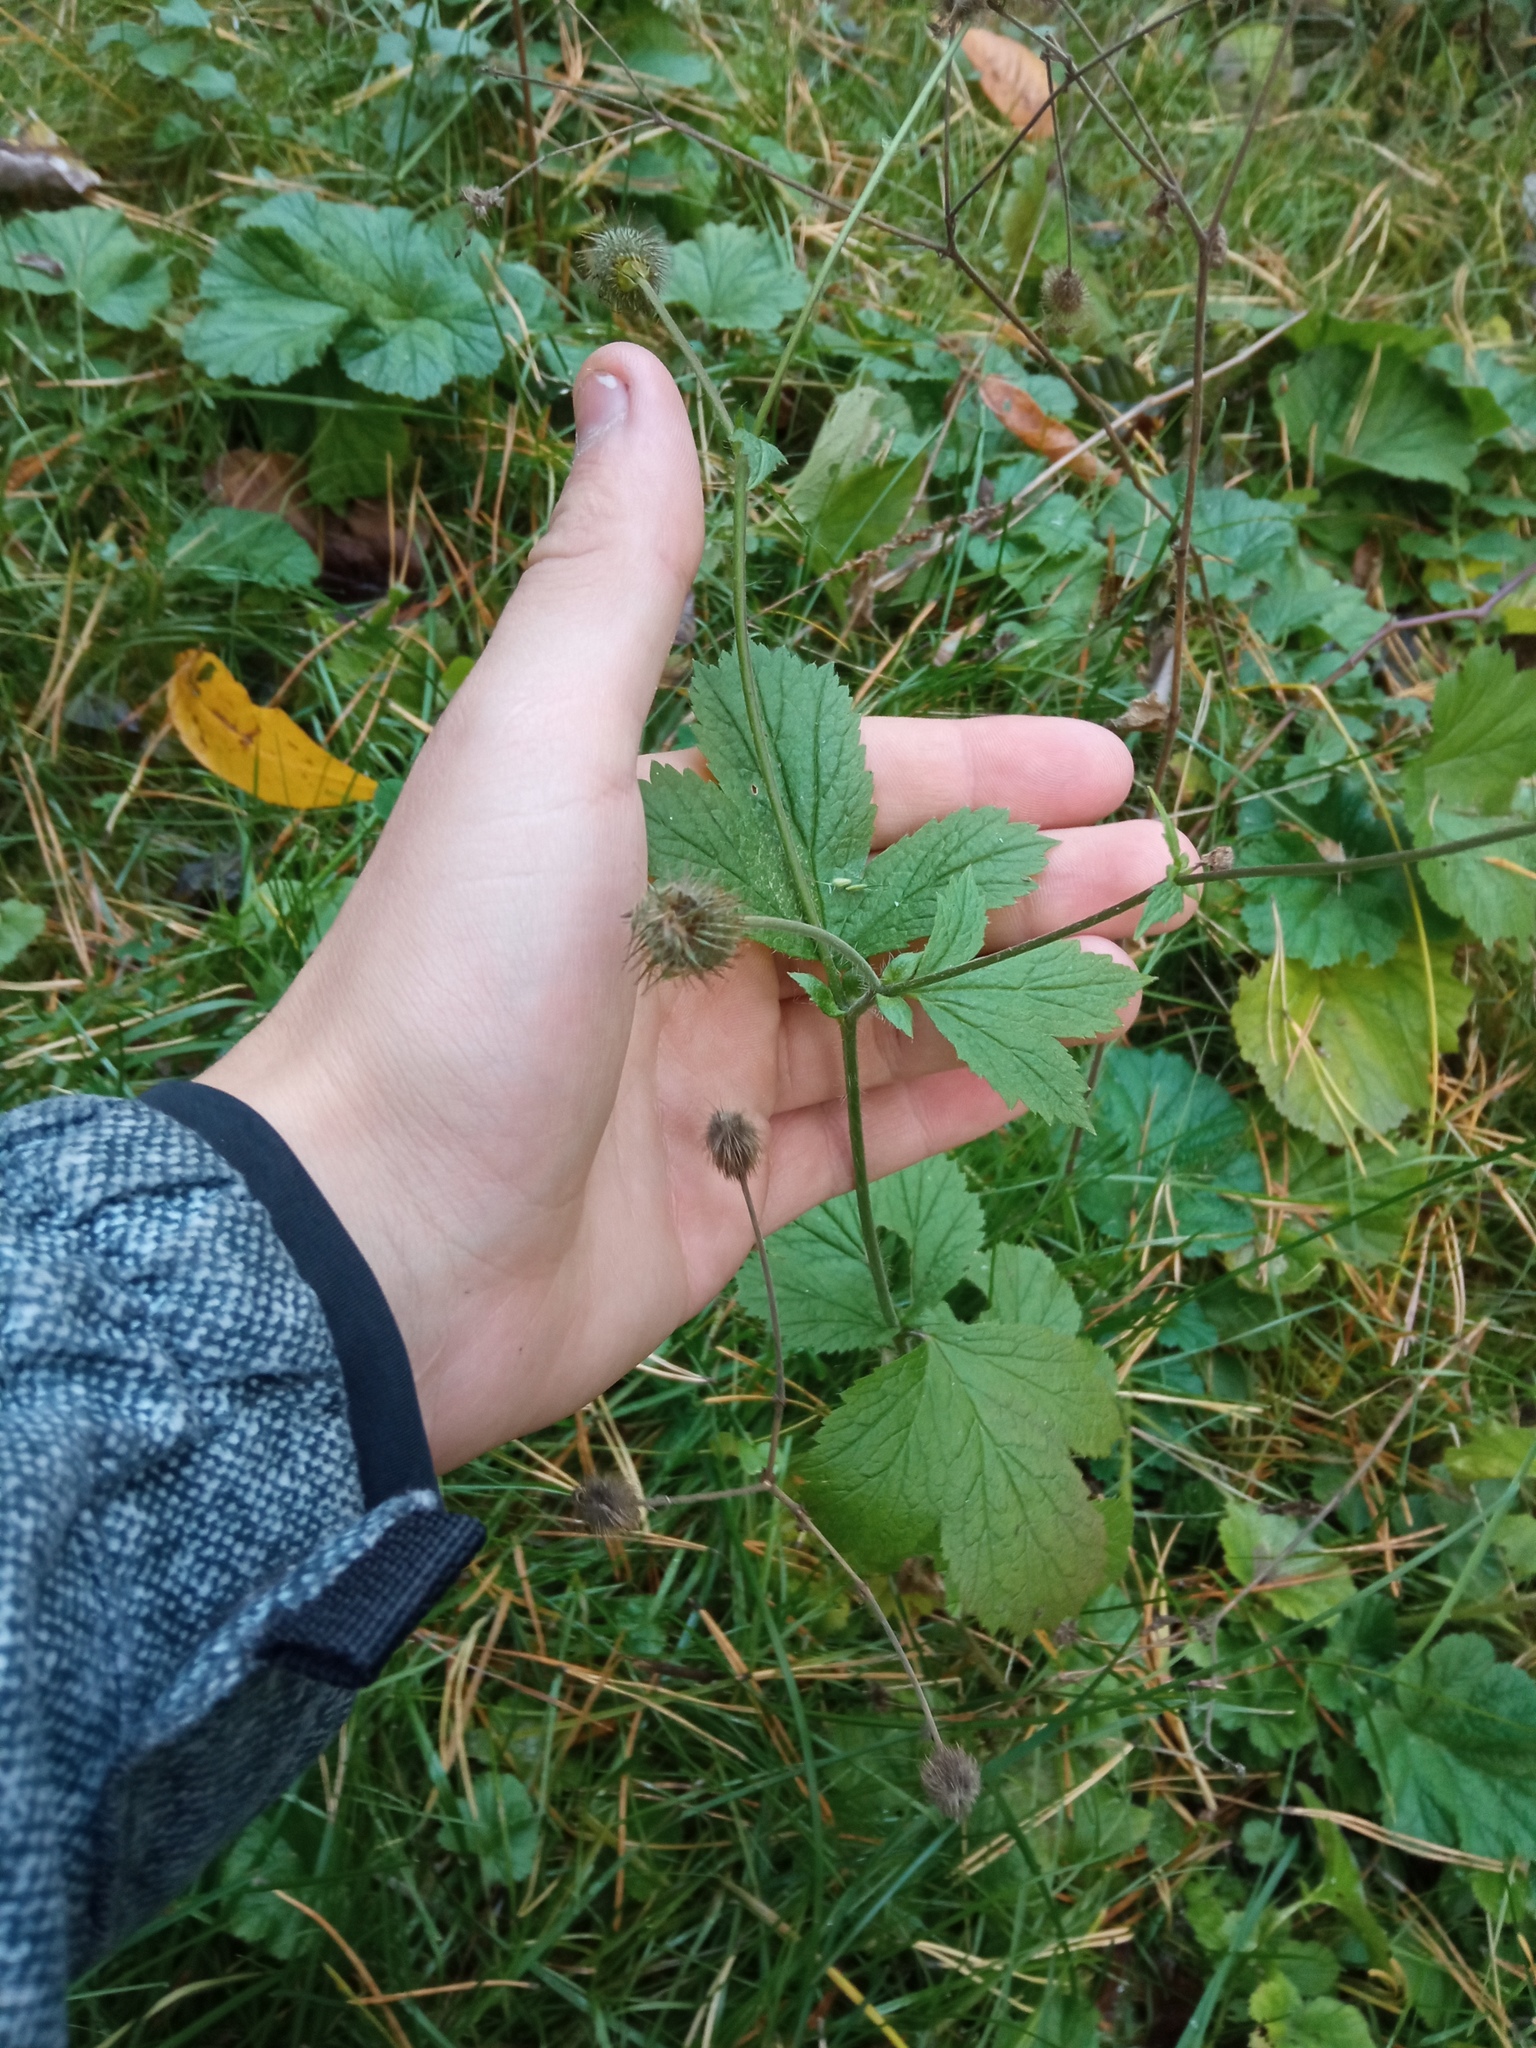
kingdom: Plantae
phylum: Tracheophyta
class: Magnoliopsida
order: Rosales
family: Rosaceae
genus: Geum
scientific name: Geum aleppicum
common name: Yellow avens
